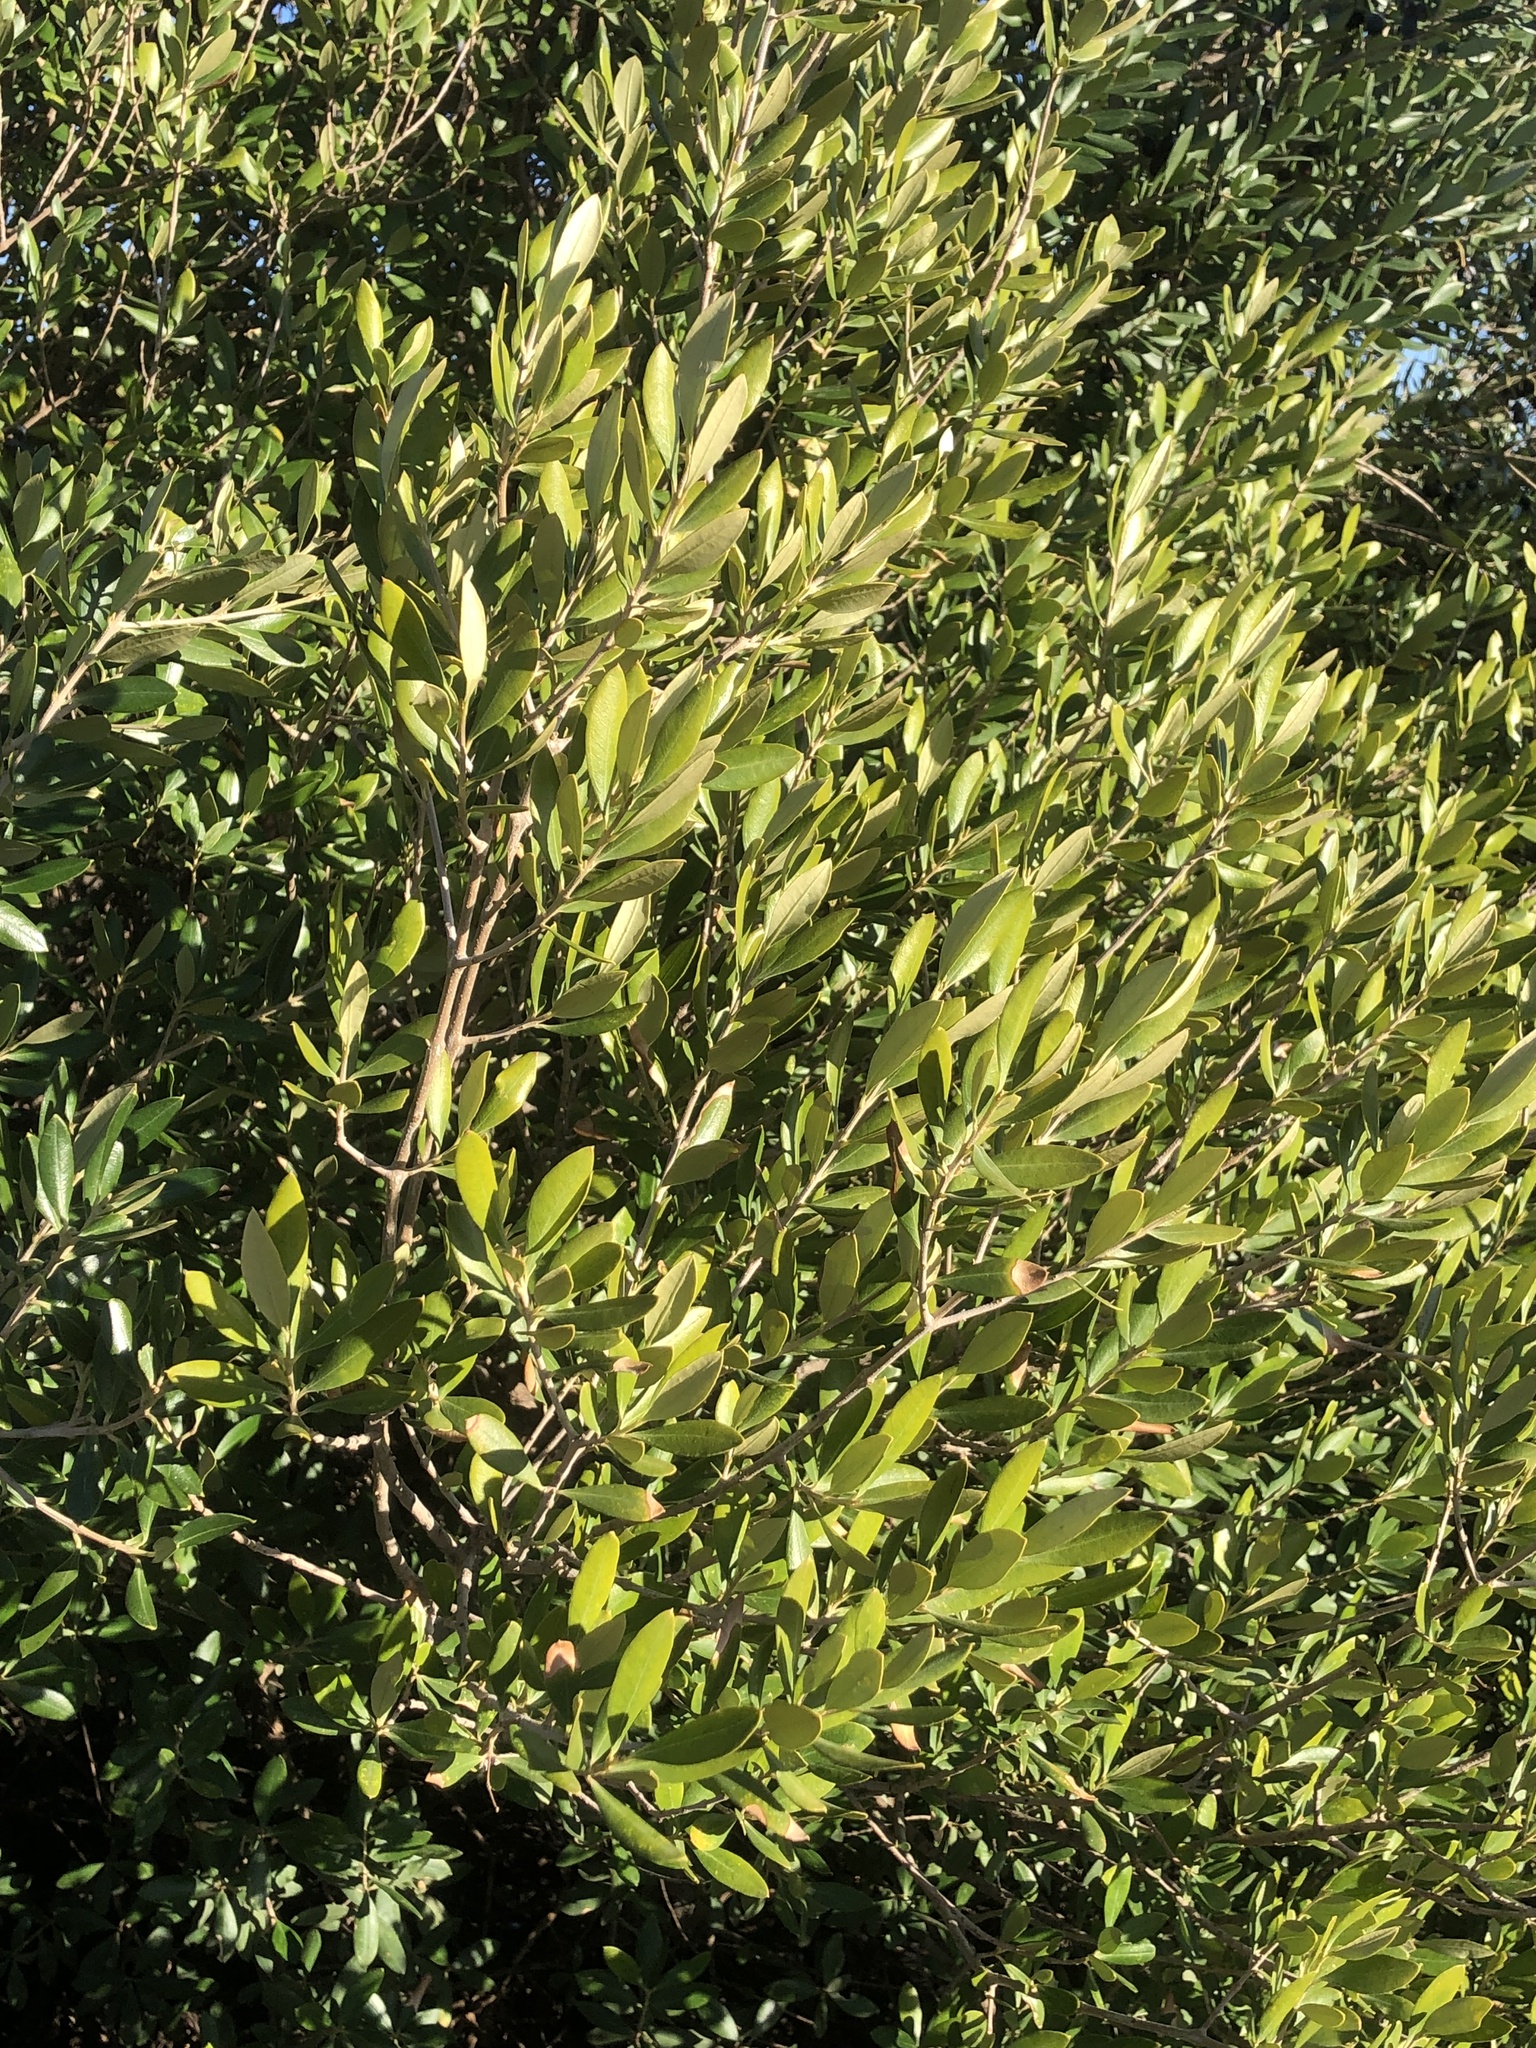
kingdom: Plantae
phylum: Tracheophyta
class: Magnoliopsida
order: Lamiales
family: Oleaceae
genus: Olea
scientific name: Olea europaea
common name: Olive
